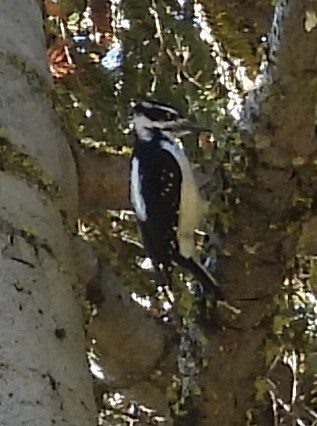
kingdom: Animalia
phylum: Chordata
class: Aves
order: Piciformes
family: Picidae
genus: Leuconotopicus
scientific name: Leuconotopicus villosus
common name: Hairy woodpecker
